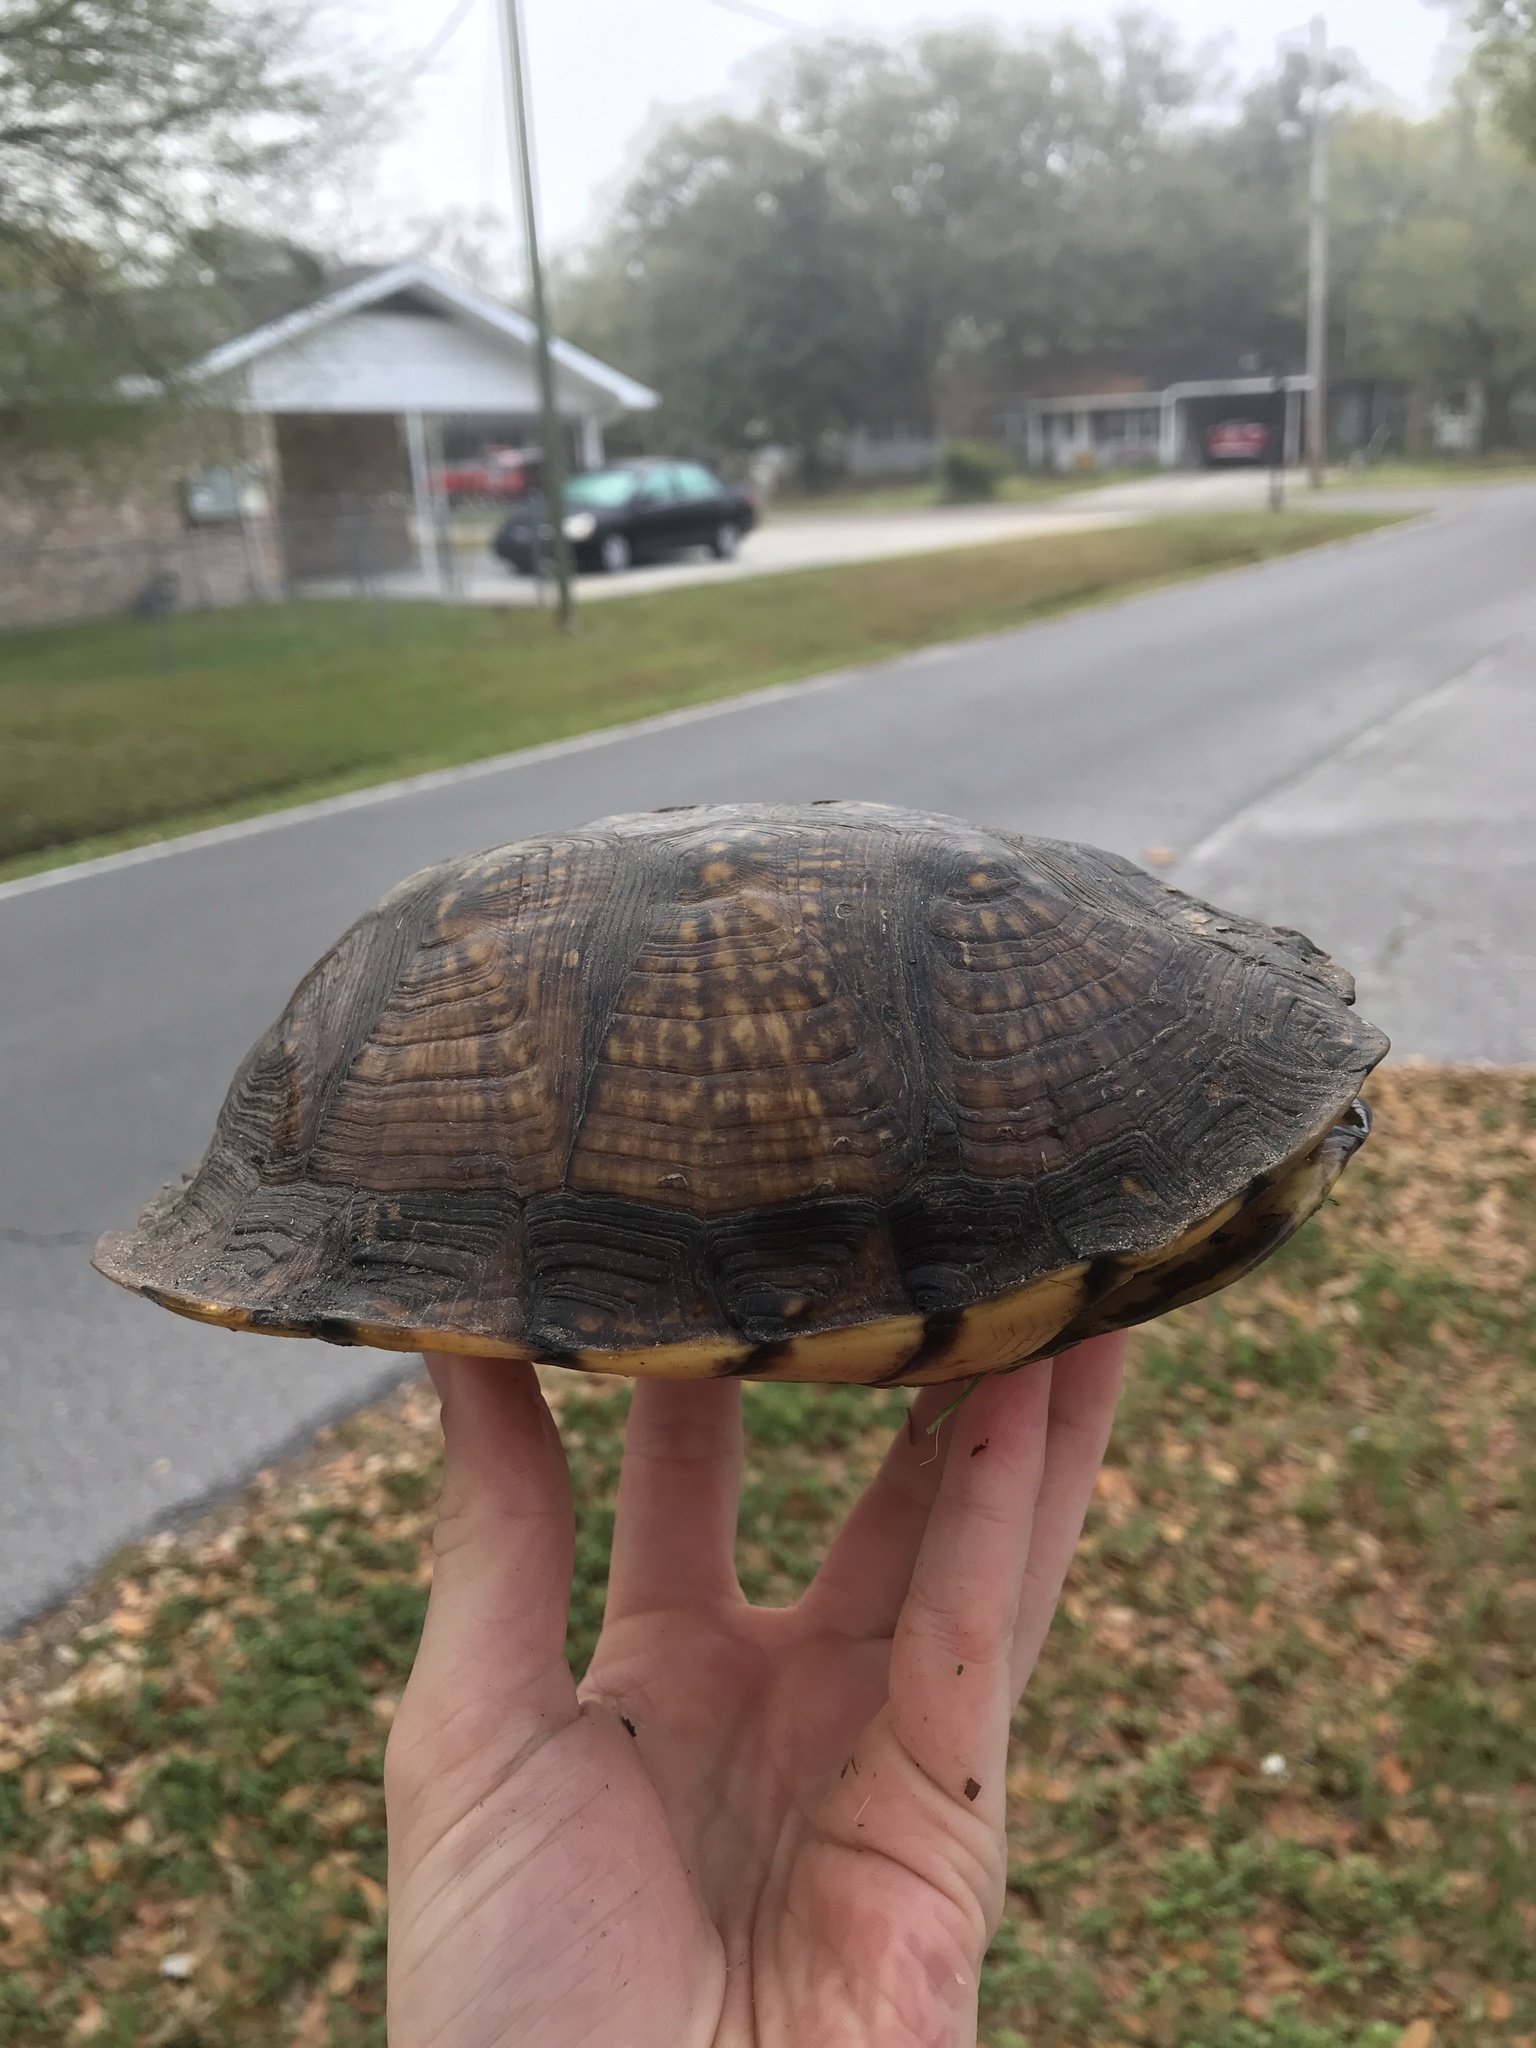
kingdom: Animalia
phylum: Chordata
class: Testudines
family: Emydidae
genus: Terrapene
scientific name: Terrapene carolina
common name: Common box turtle
